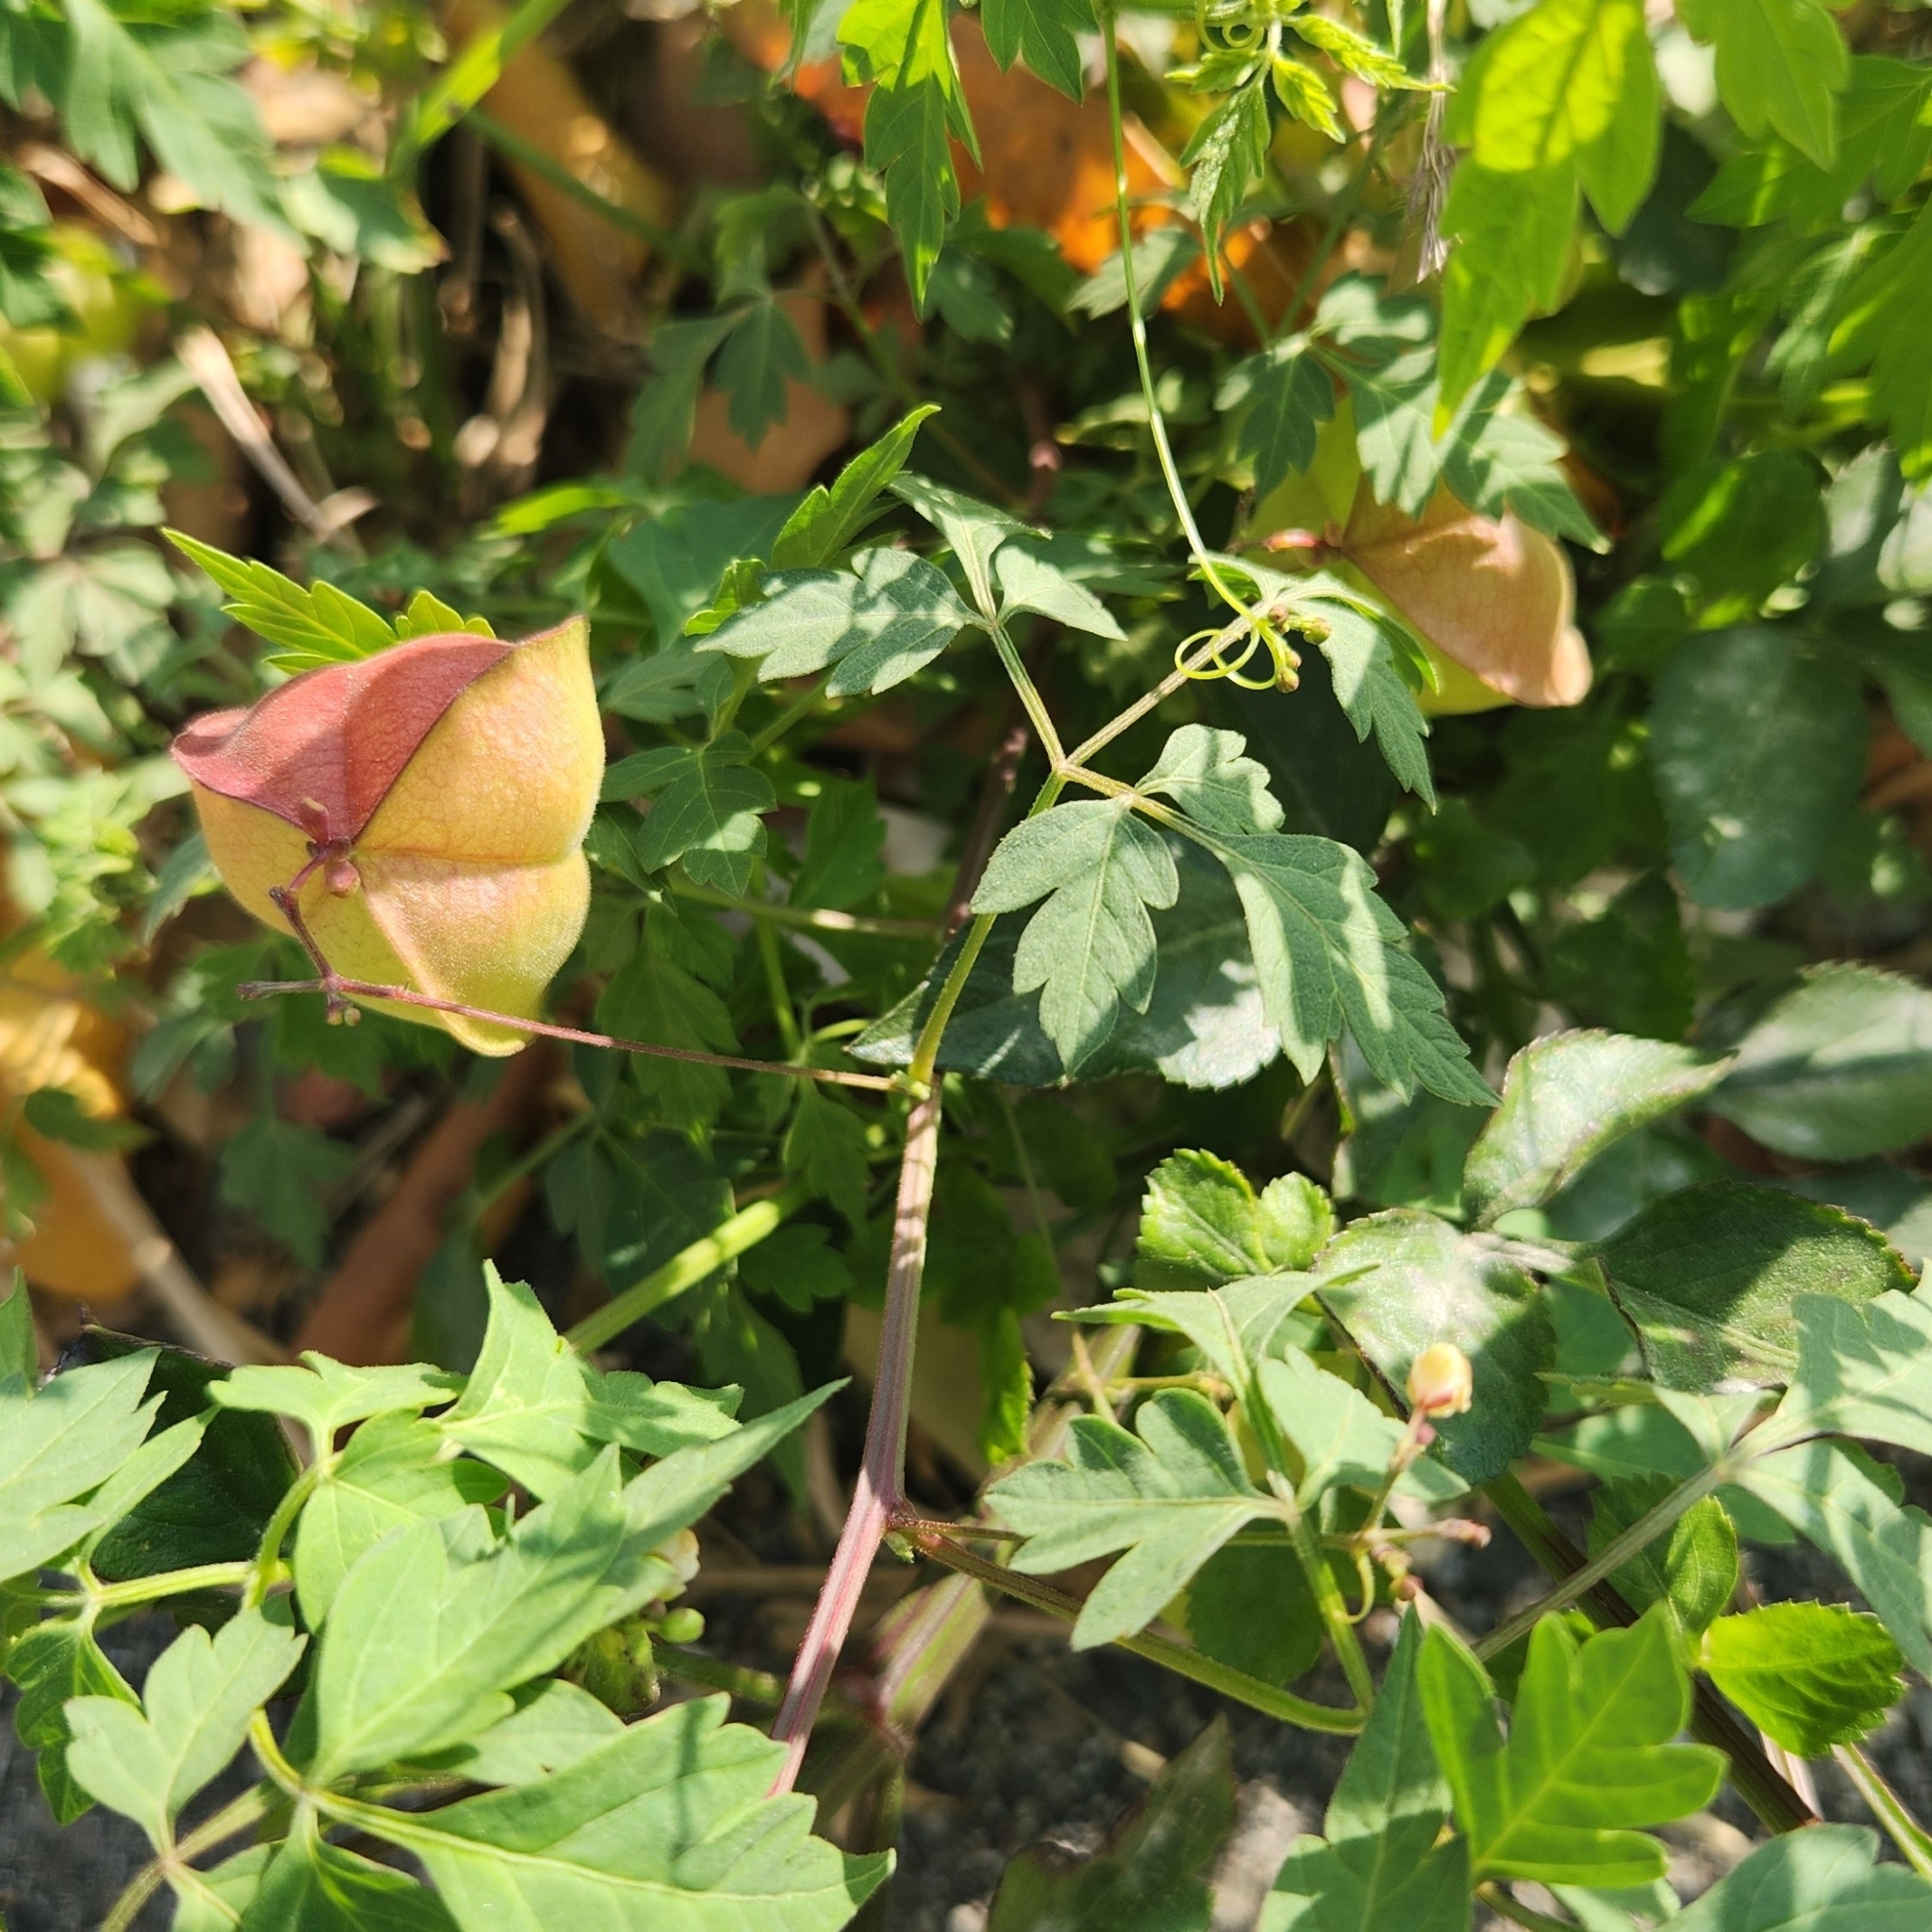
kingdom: Plantae
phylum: Tracheophyta
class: Magnoliopsida
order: Sapindales
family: Sapindaceae
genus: Cardiospermum
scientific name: Cardiospermum halicacabum
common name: Balloon vine
